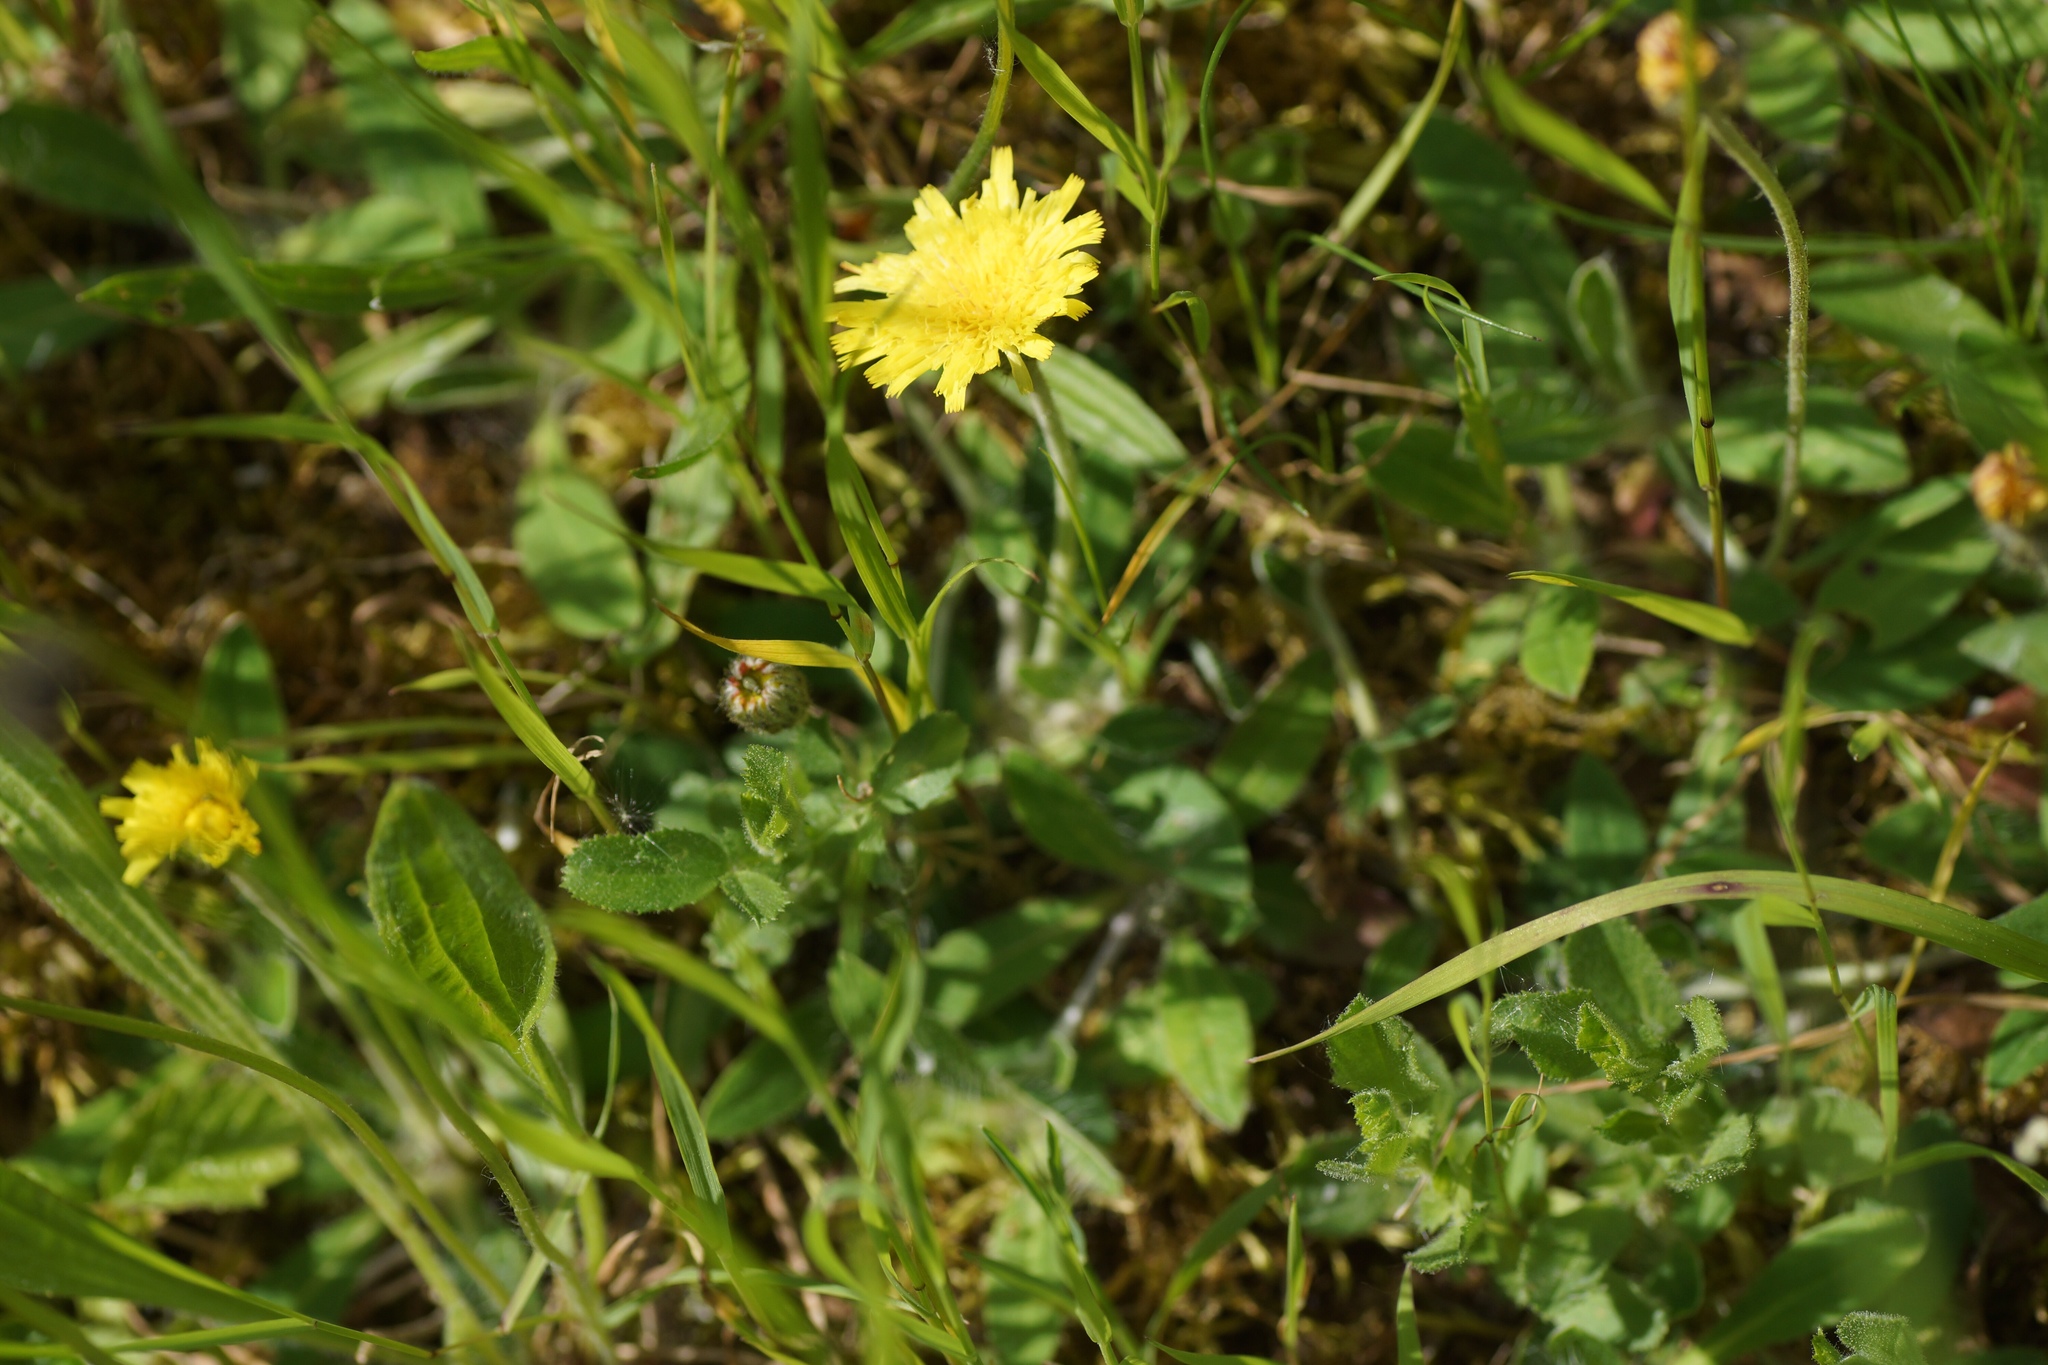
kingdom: Plantae
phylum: Tracheophyta
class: Magnoliopsida
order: Asterales
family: Asteraceae
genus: Pilosella
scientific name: Pilosella officinarum
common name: Mouse-ear hawkweed
